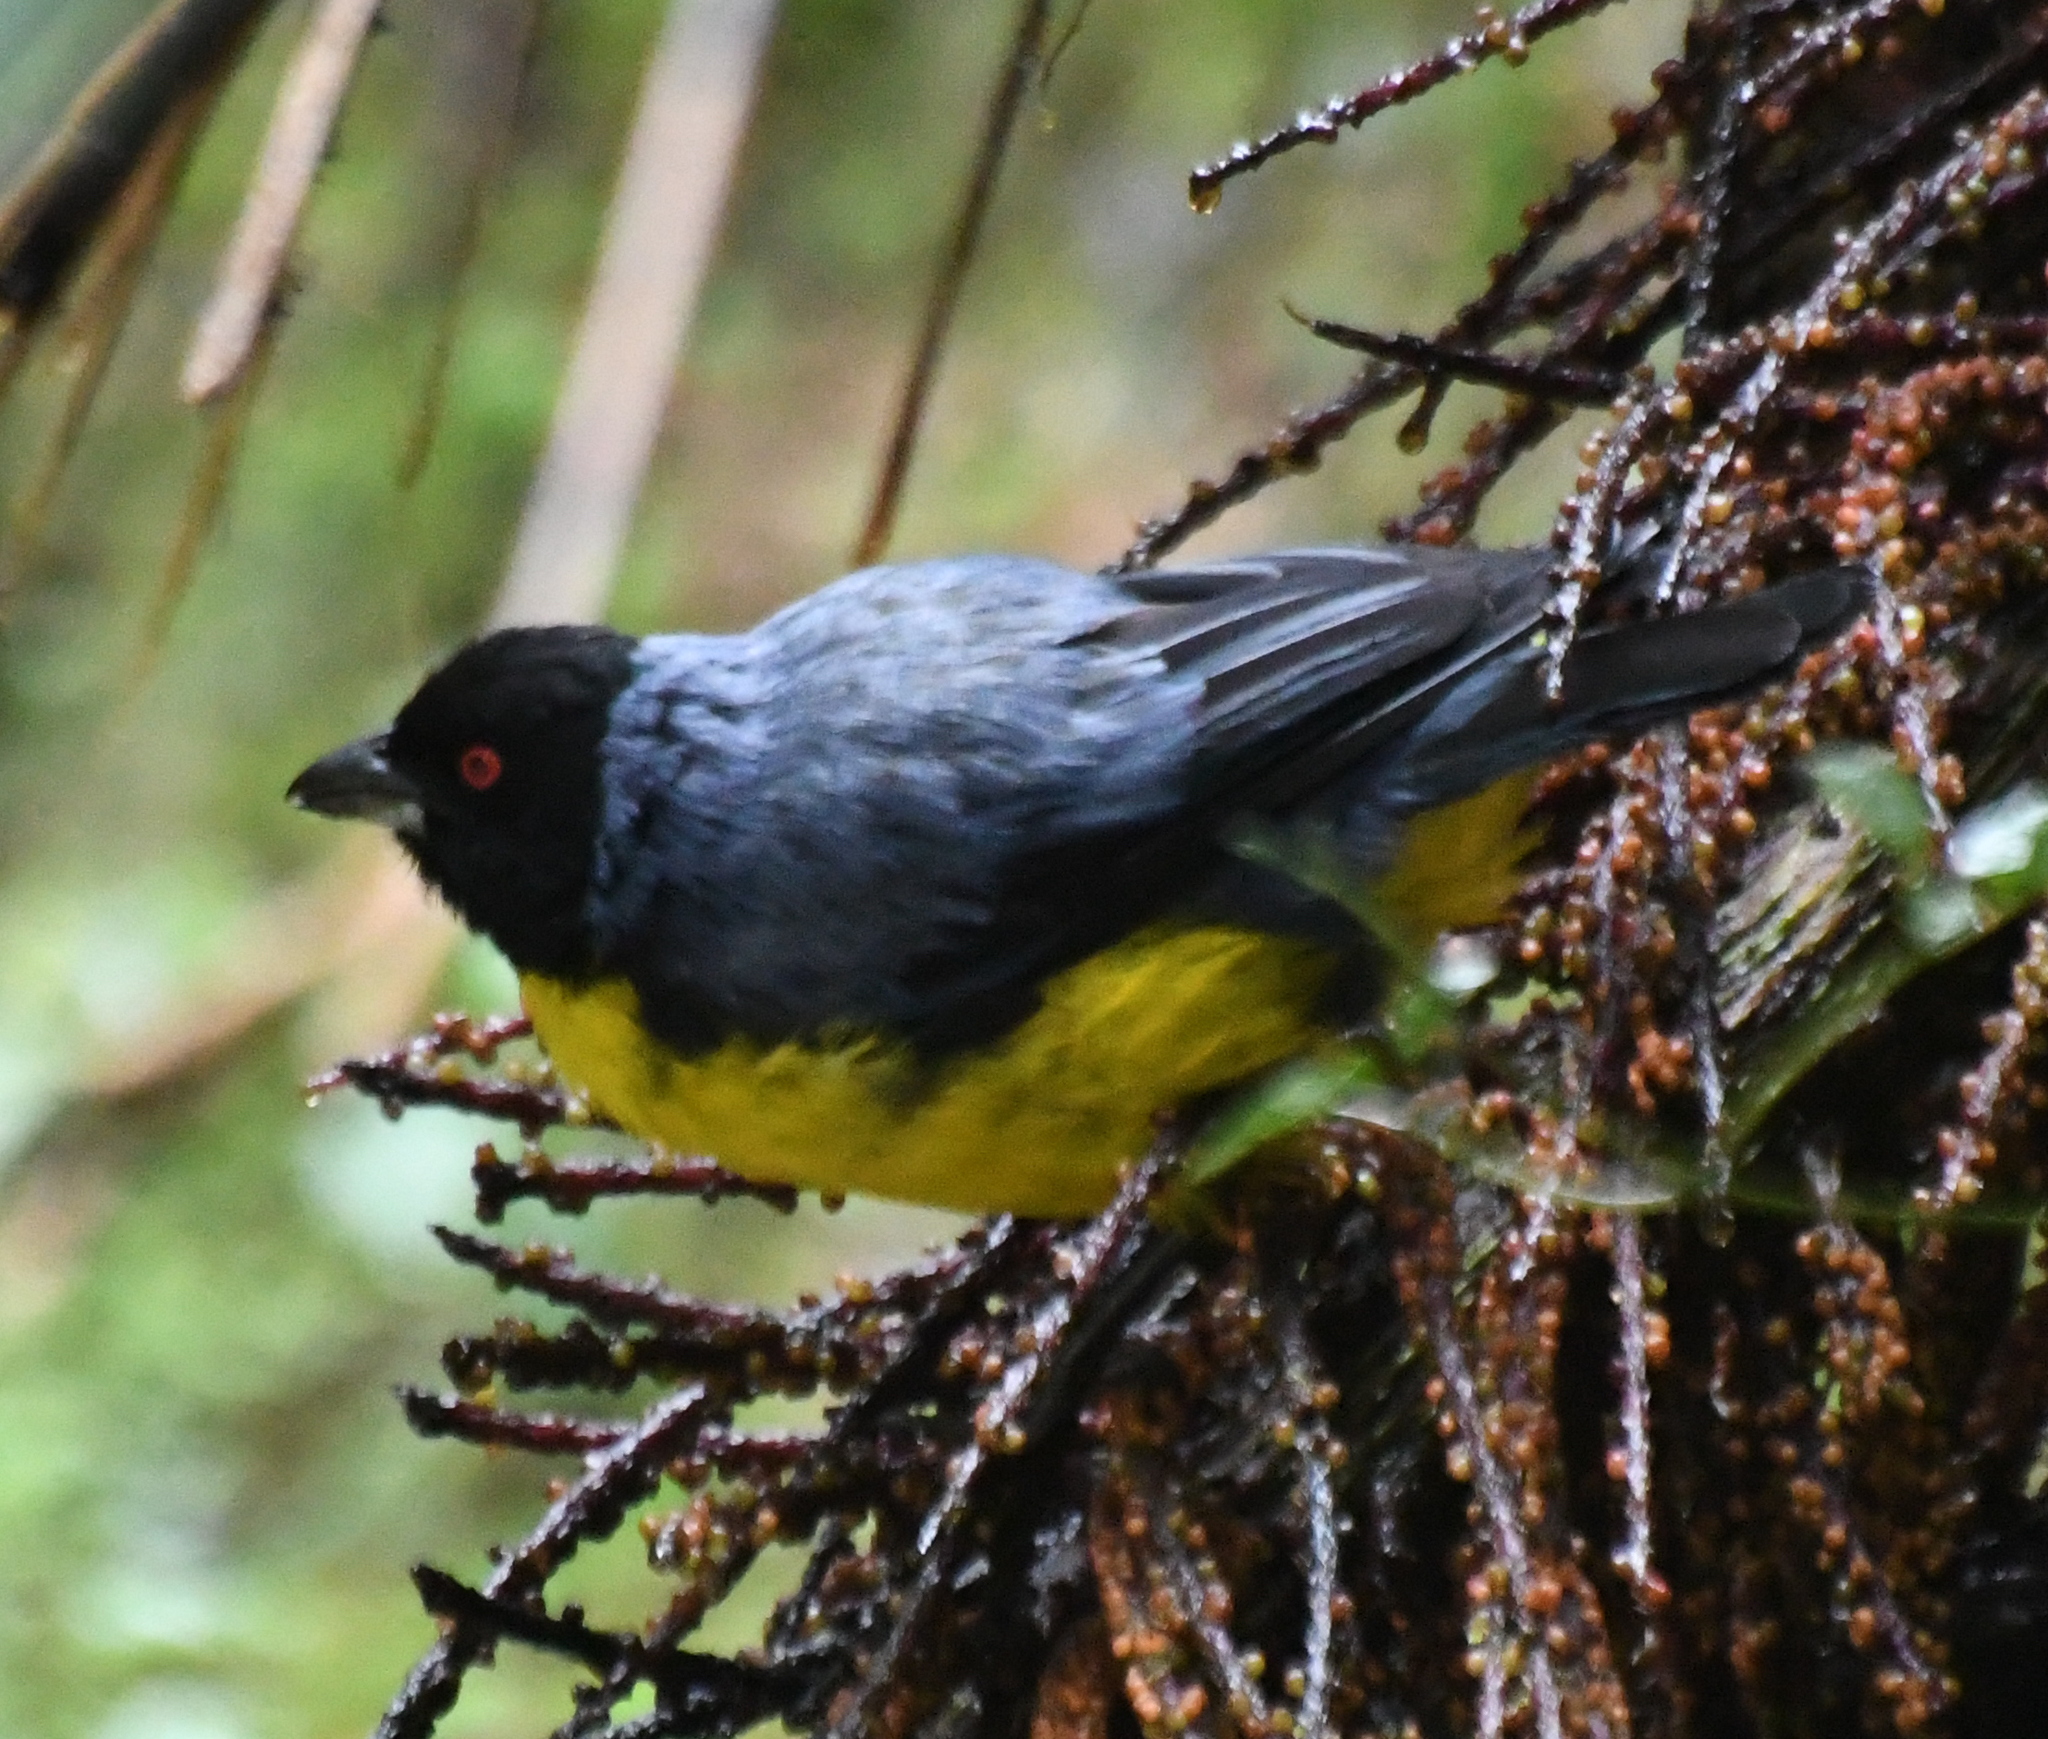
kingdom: Animalia
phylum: Chordata
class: Aves
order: Passeriformes
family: Thraupidae
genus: Buthraupis
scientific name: Buthraupis montana
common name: Hooded mountain tanager
